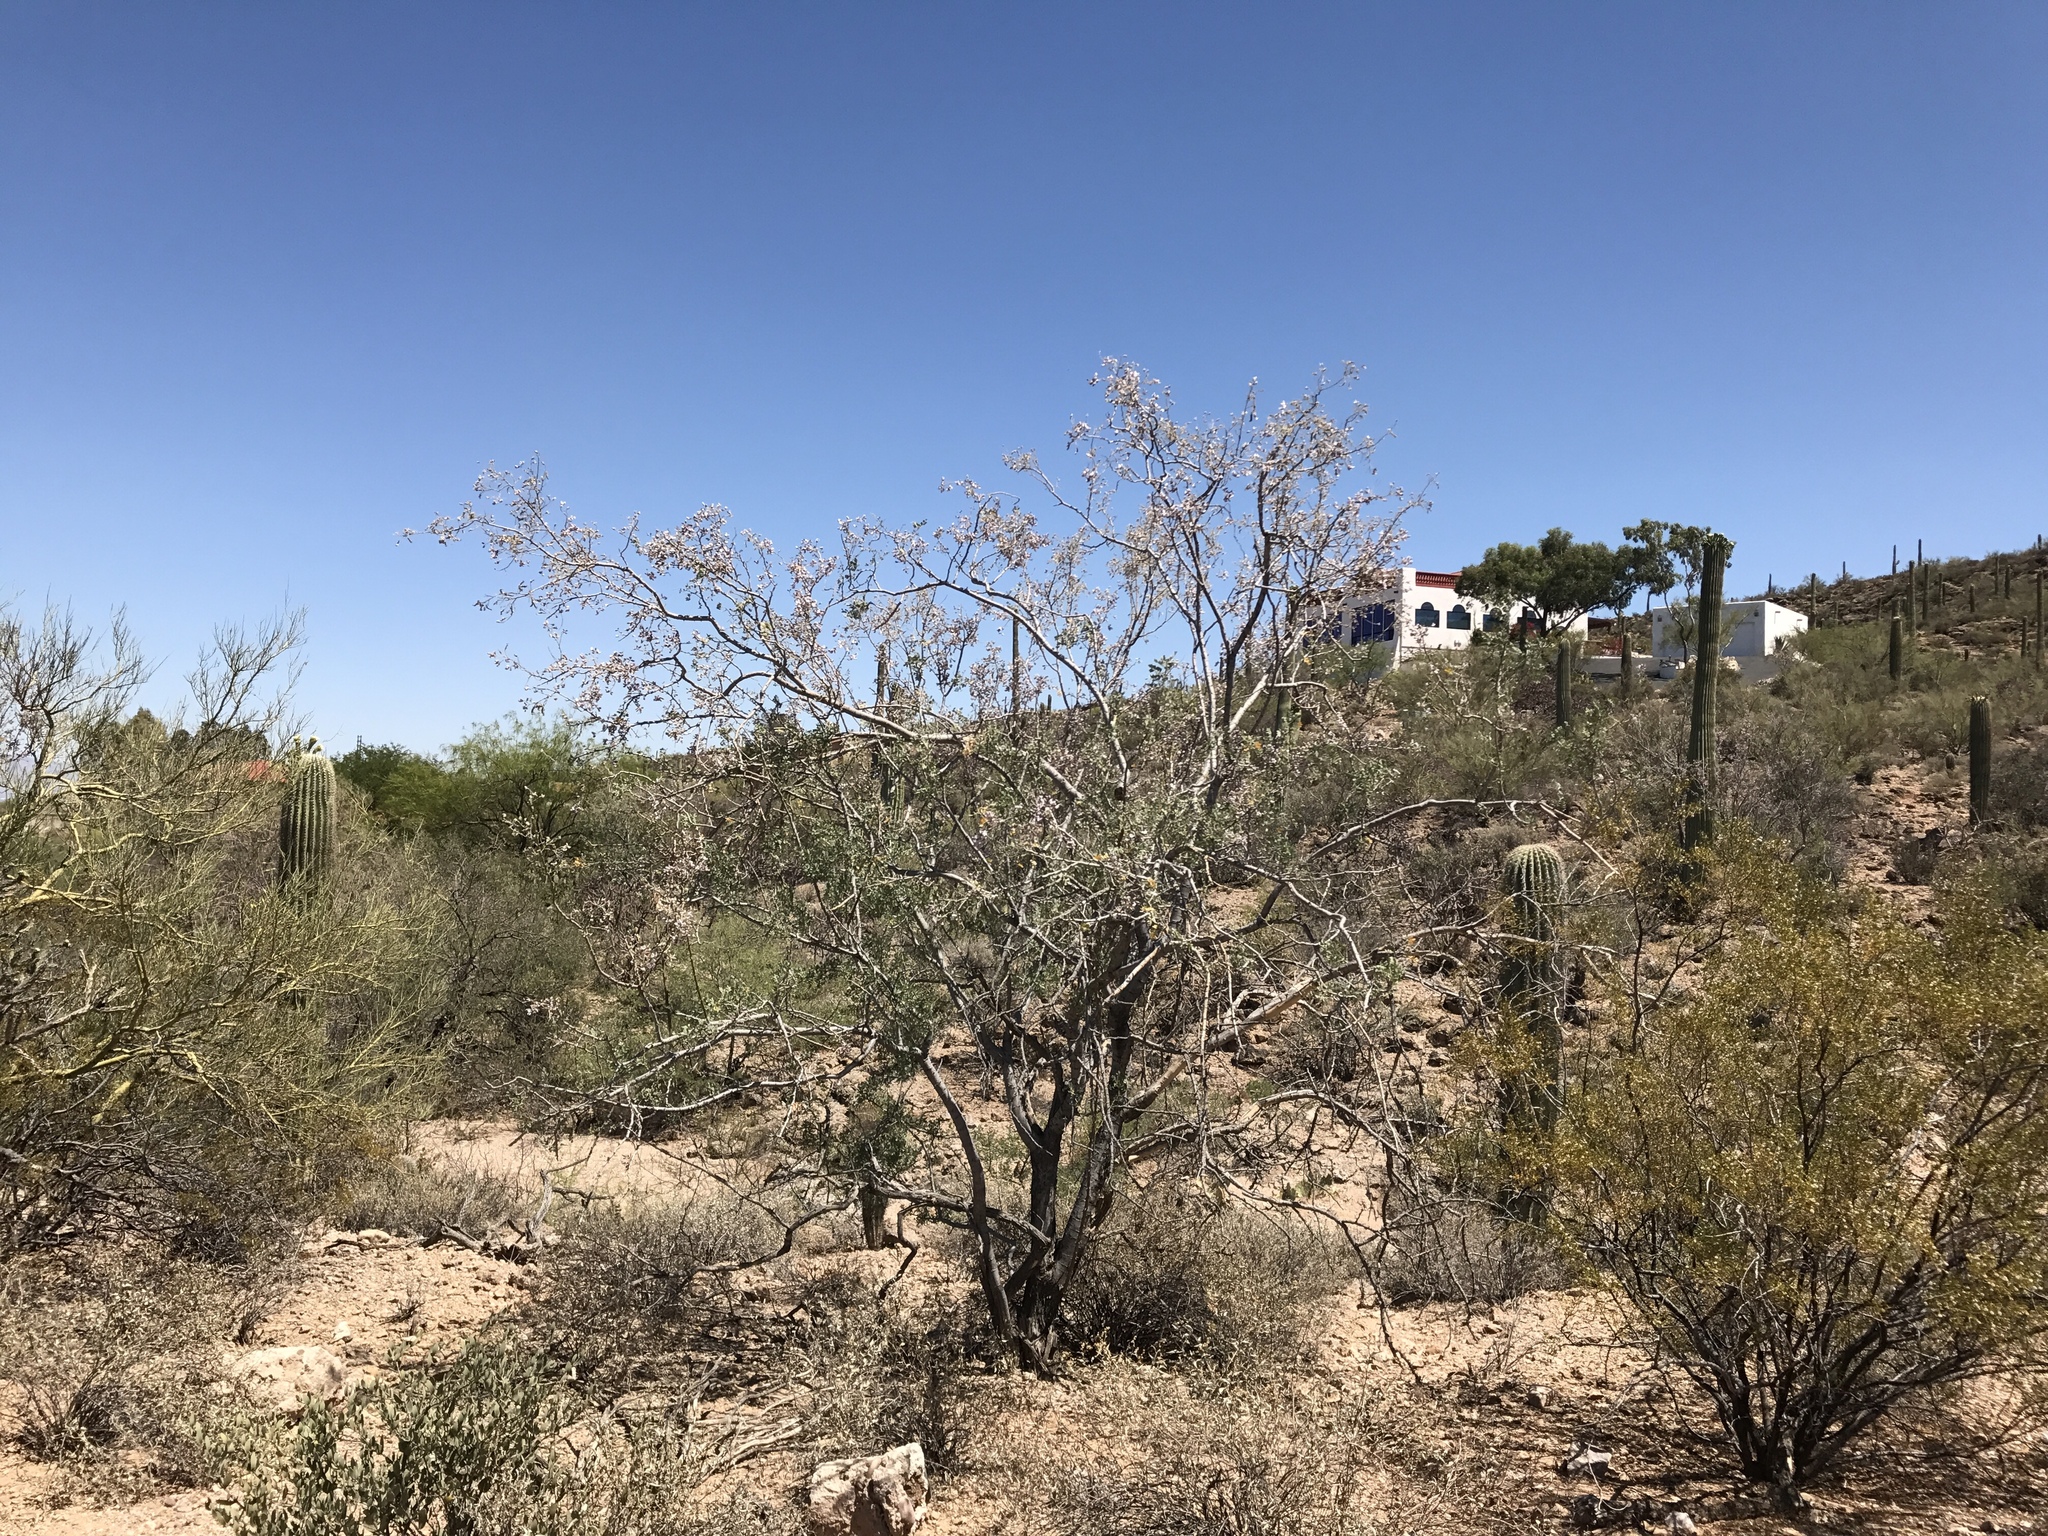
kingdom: Plantae
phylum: Tracheophyta
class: Magnoliopsida
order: Fabales
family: Fabaceae
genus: Olneya
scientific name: Olneya tesota
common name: Desert ironwood
